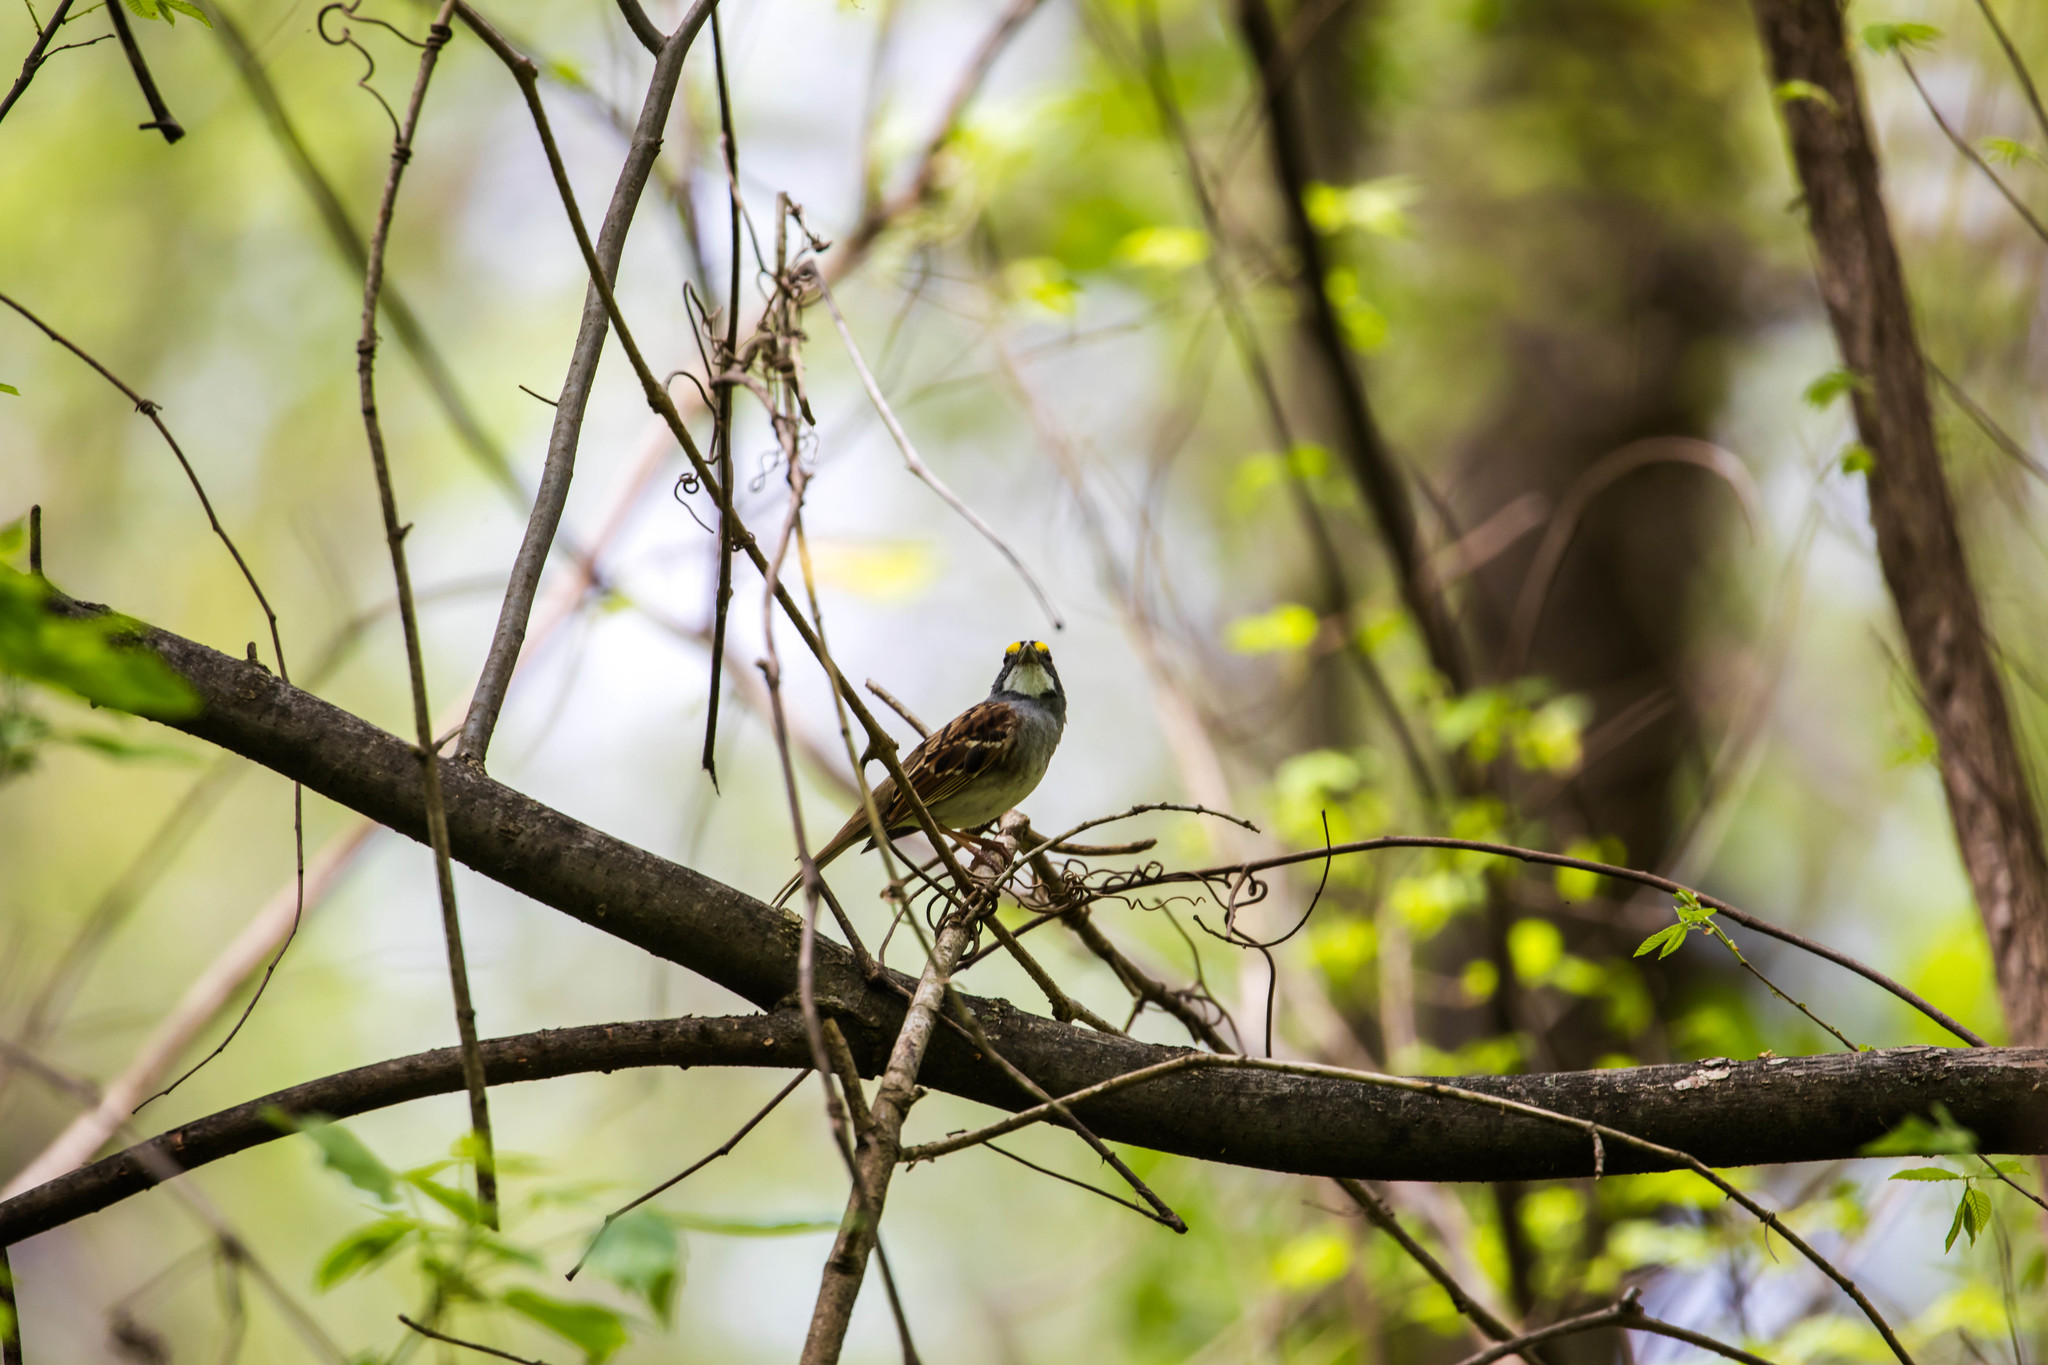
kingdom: Animalia
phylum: Chordata
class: Aves
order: Passeriformes
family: Passerellidae
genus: Zonotrichia
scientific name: Zonotrichia albicollis
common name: White-throated sparrow
